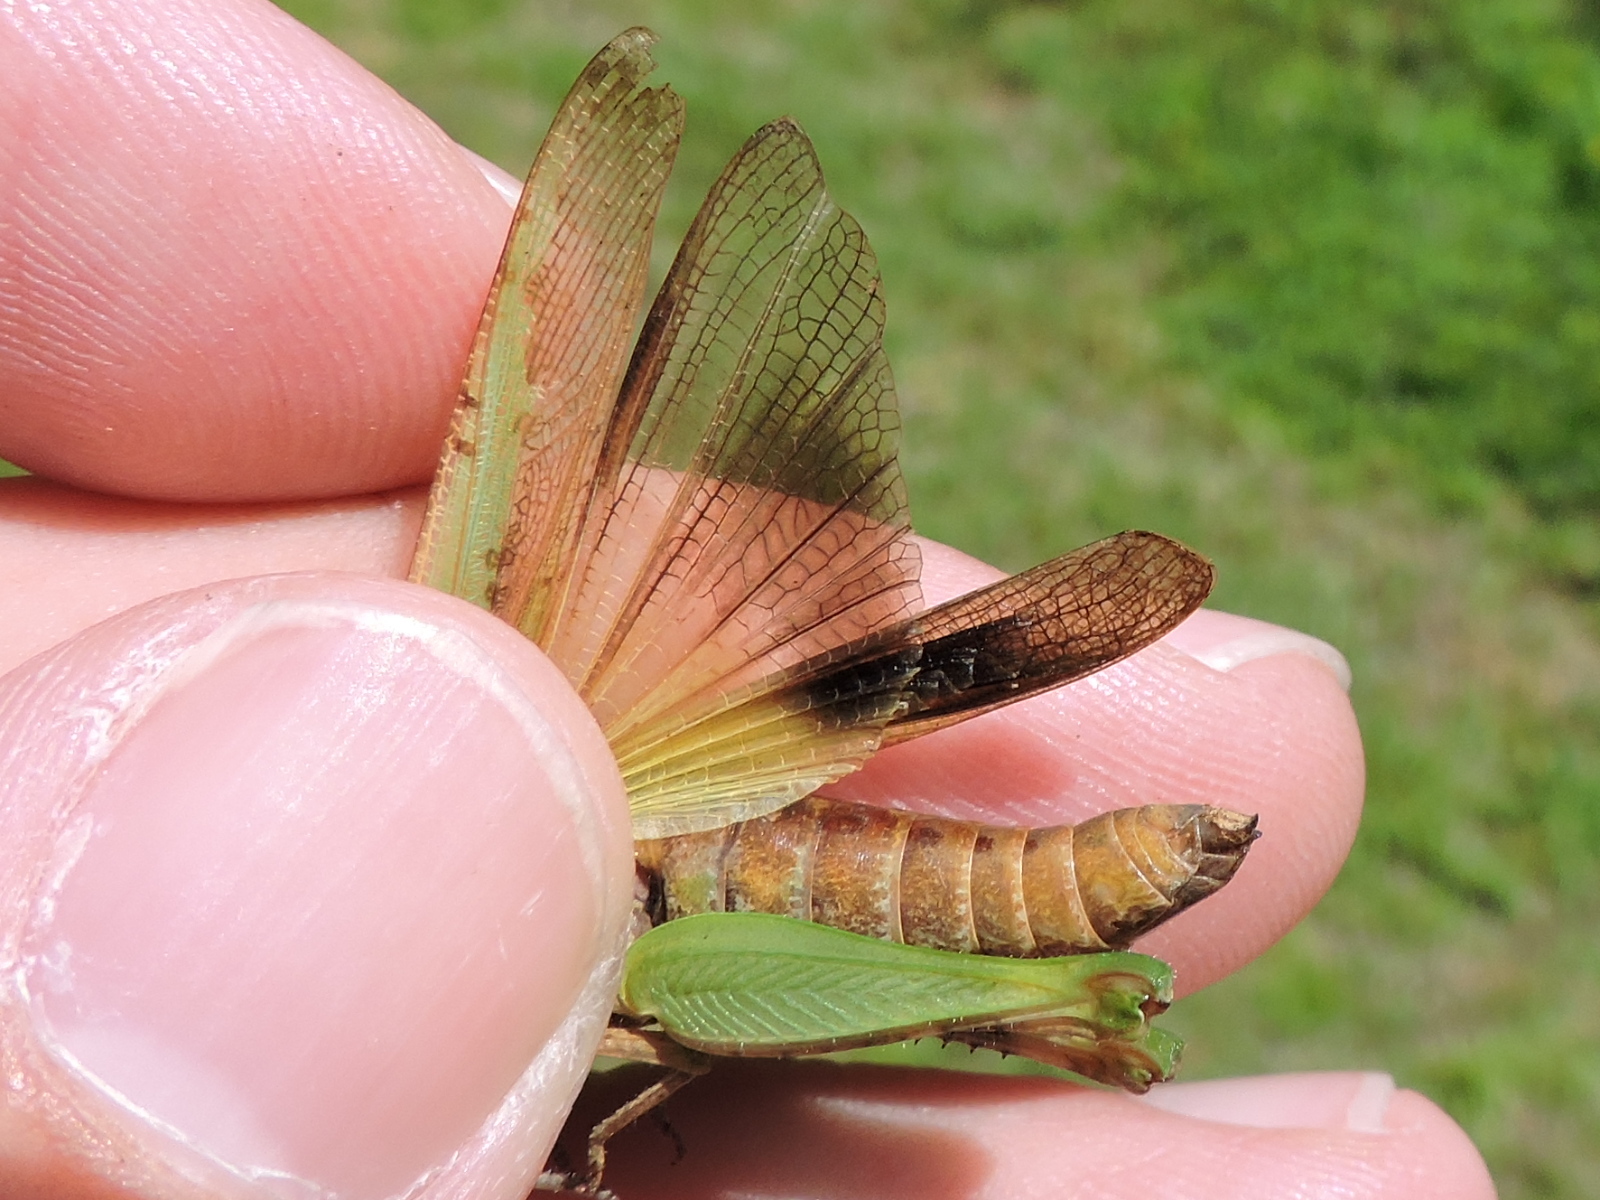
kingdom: Animalia
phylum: Arthropoda
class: Insecta
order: Orthoptera
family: Acrididae
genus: Chortophaga
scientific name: Chortophaga viridifasciata
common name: Green-striped grasshopper
